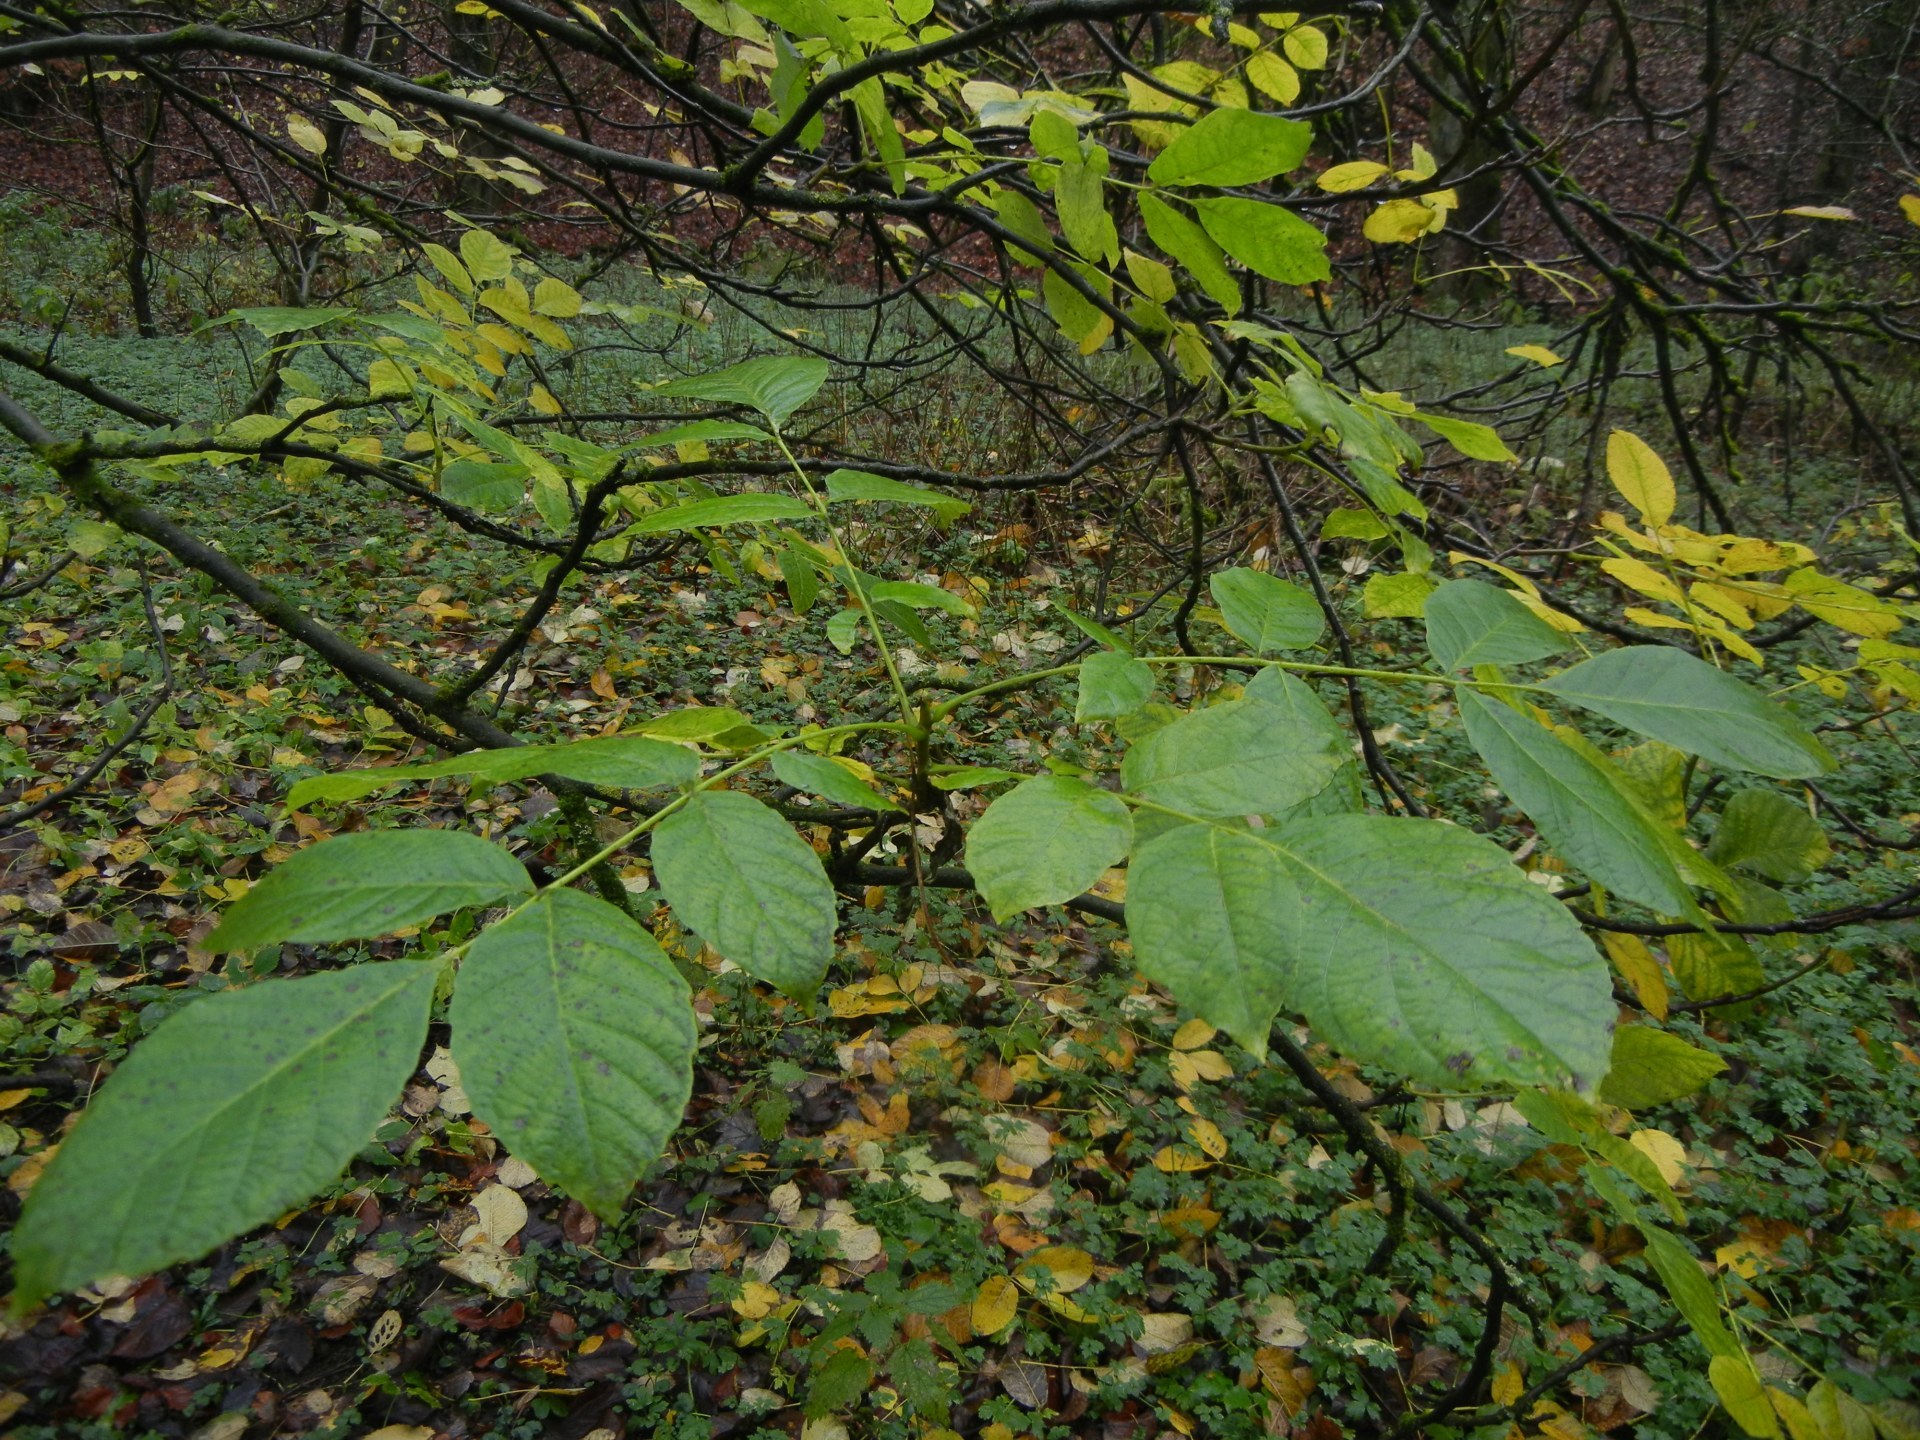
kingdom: Plantae
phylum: Tracheophyta
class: Magnoliopsida
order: Fagales
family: Juglandaceae
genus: Juglans
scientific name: Juglans regia
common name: Walnut
